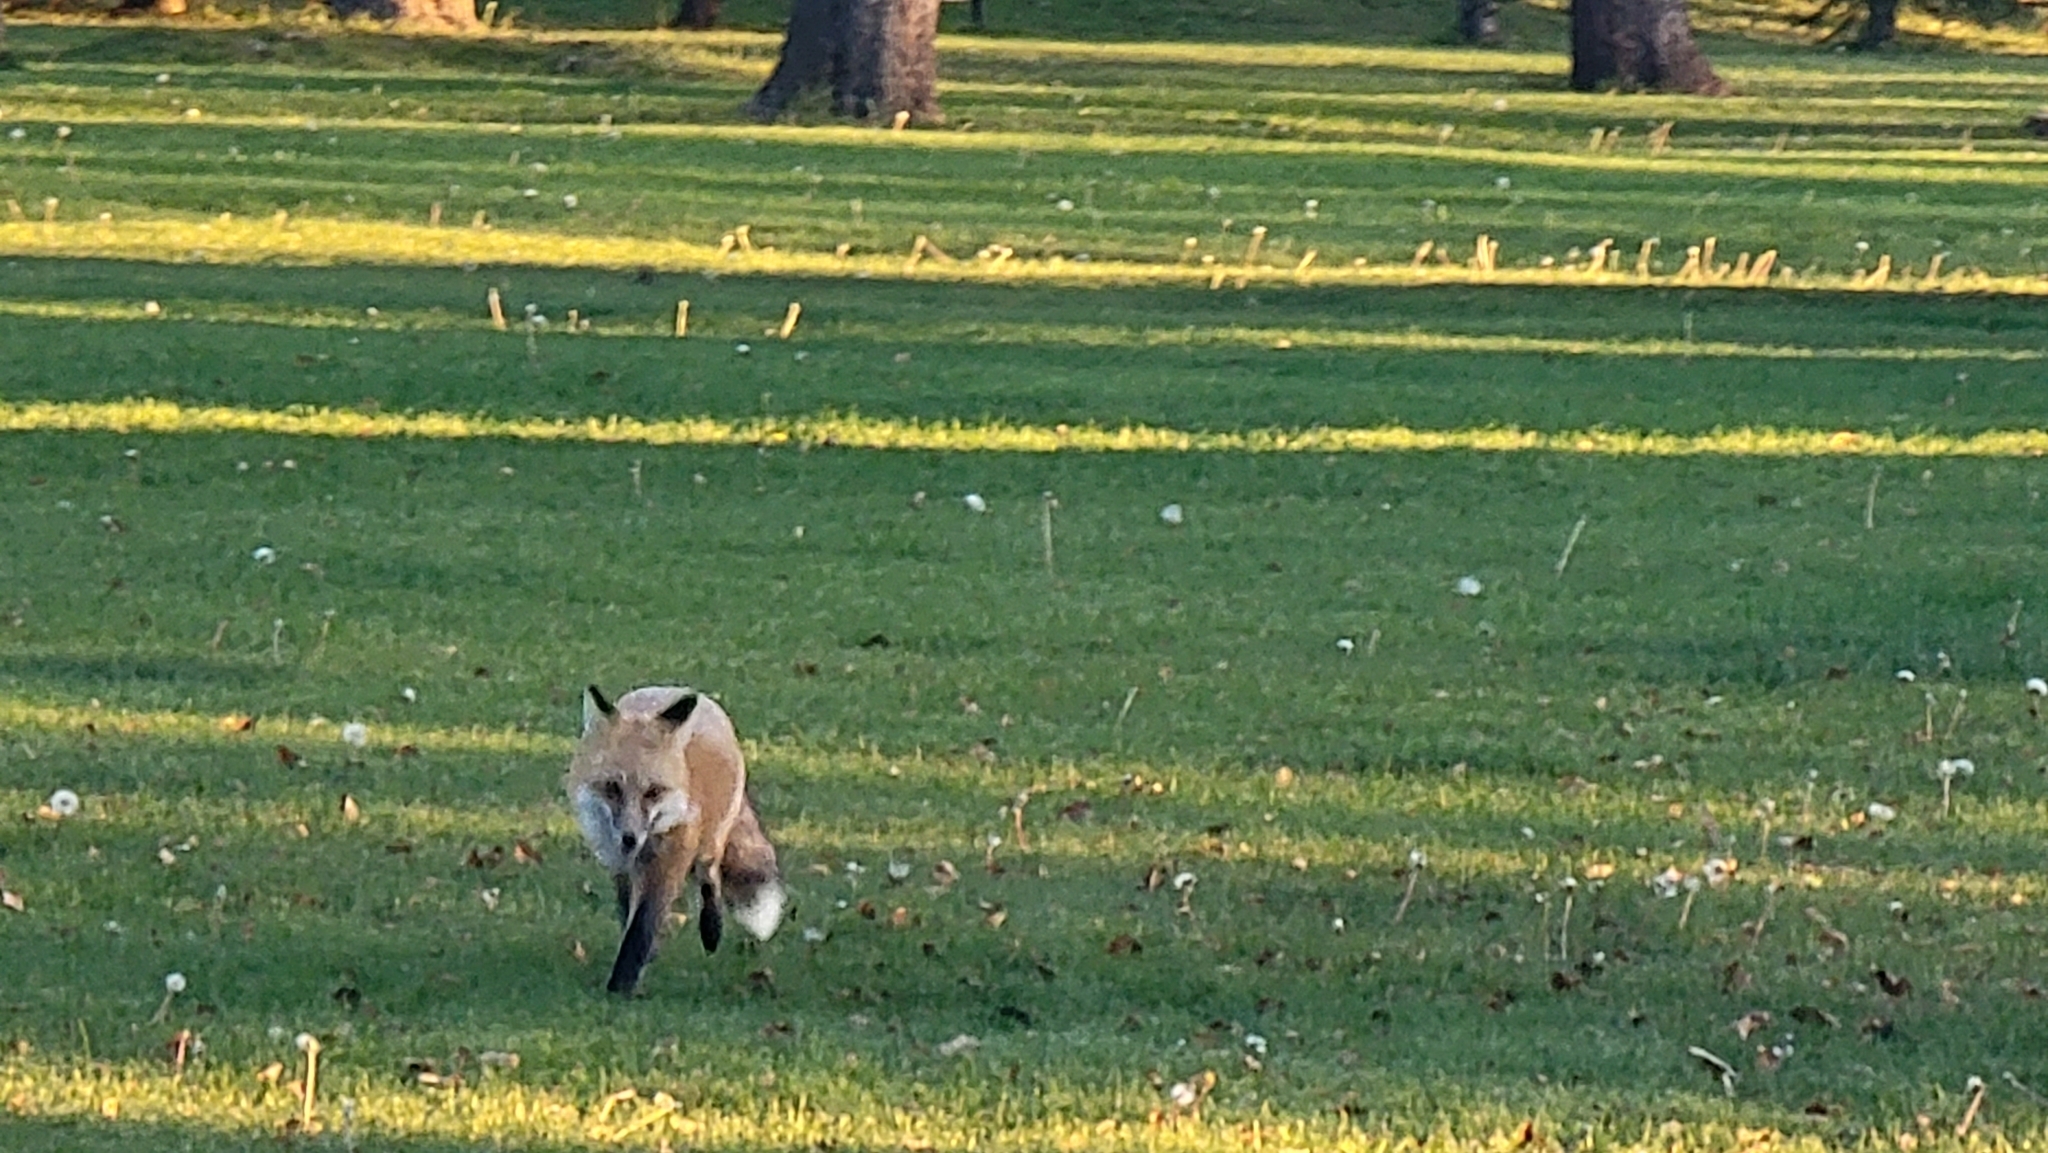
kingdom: Animalia
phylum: Chordata
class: Mammalia
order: Carnivora
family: Canidae
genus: Vulpes
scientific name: Vulpes vulpes
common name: Red fox
